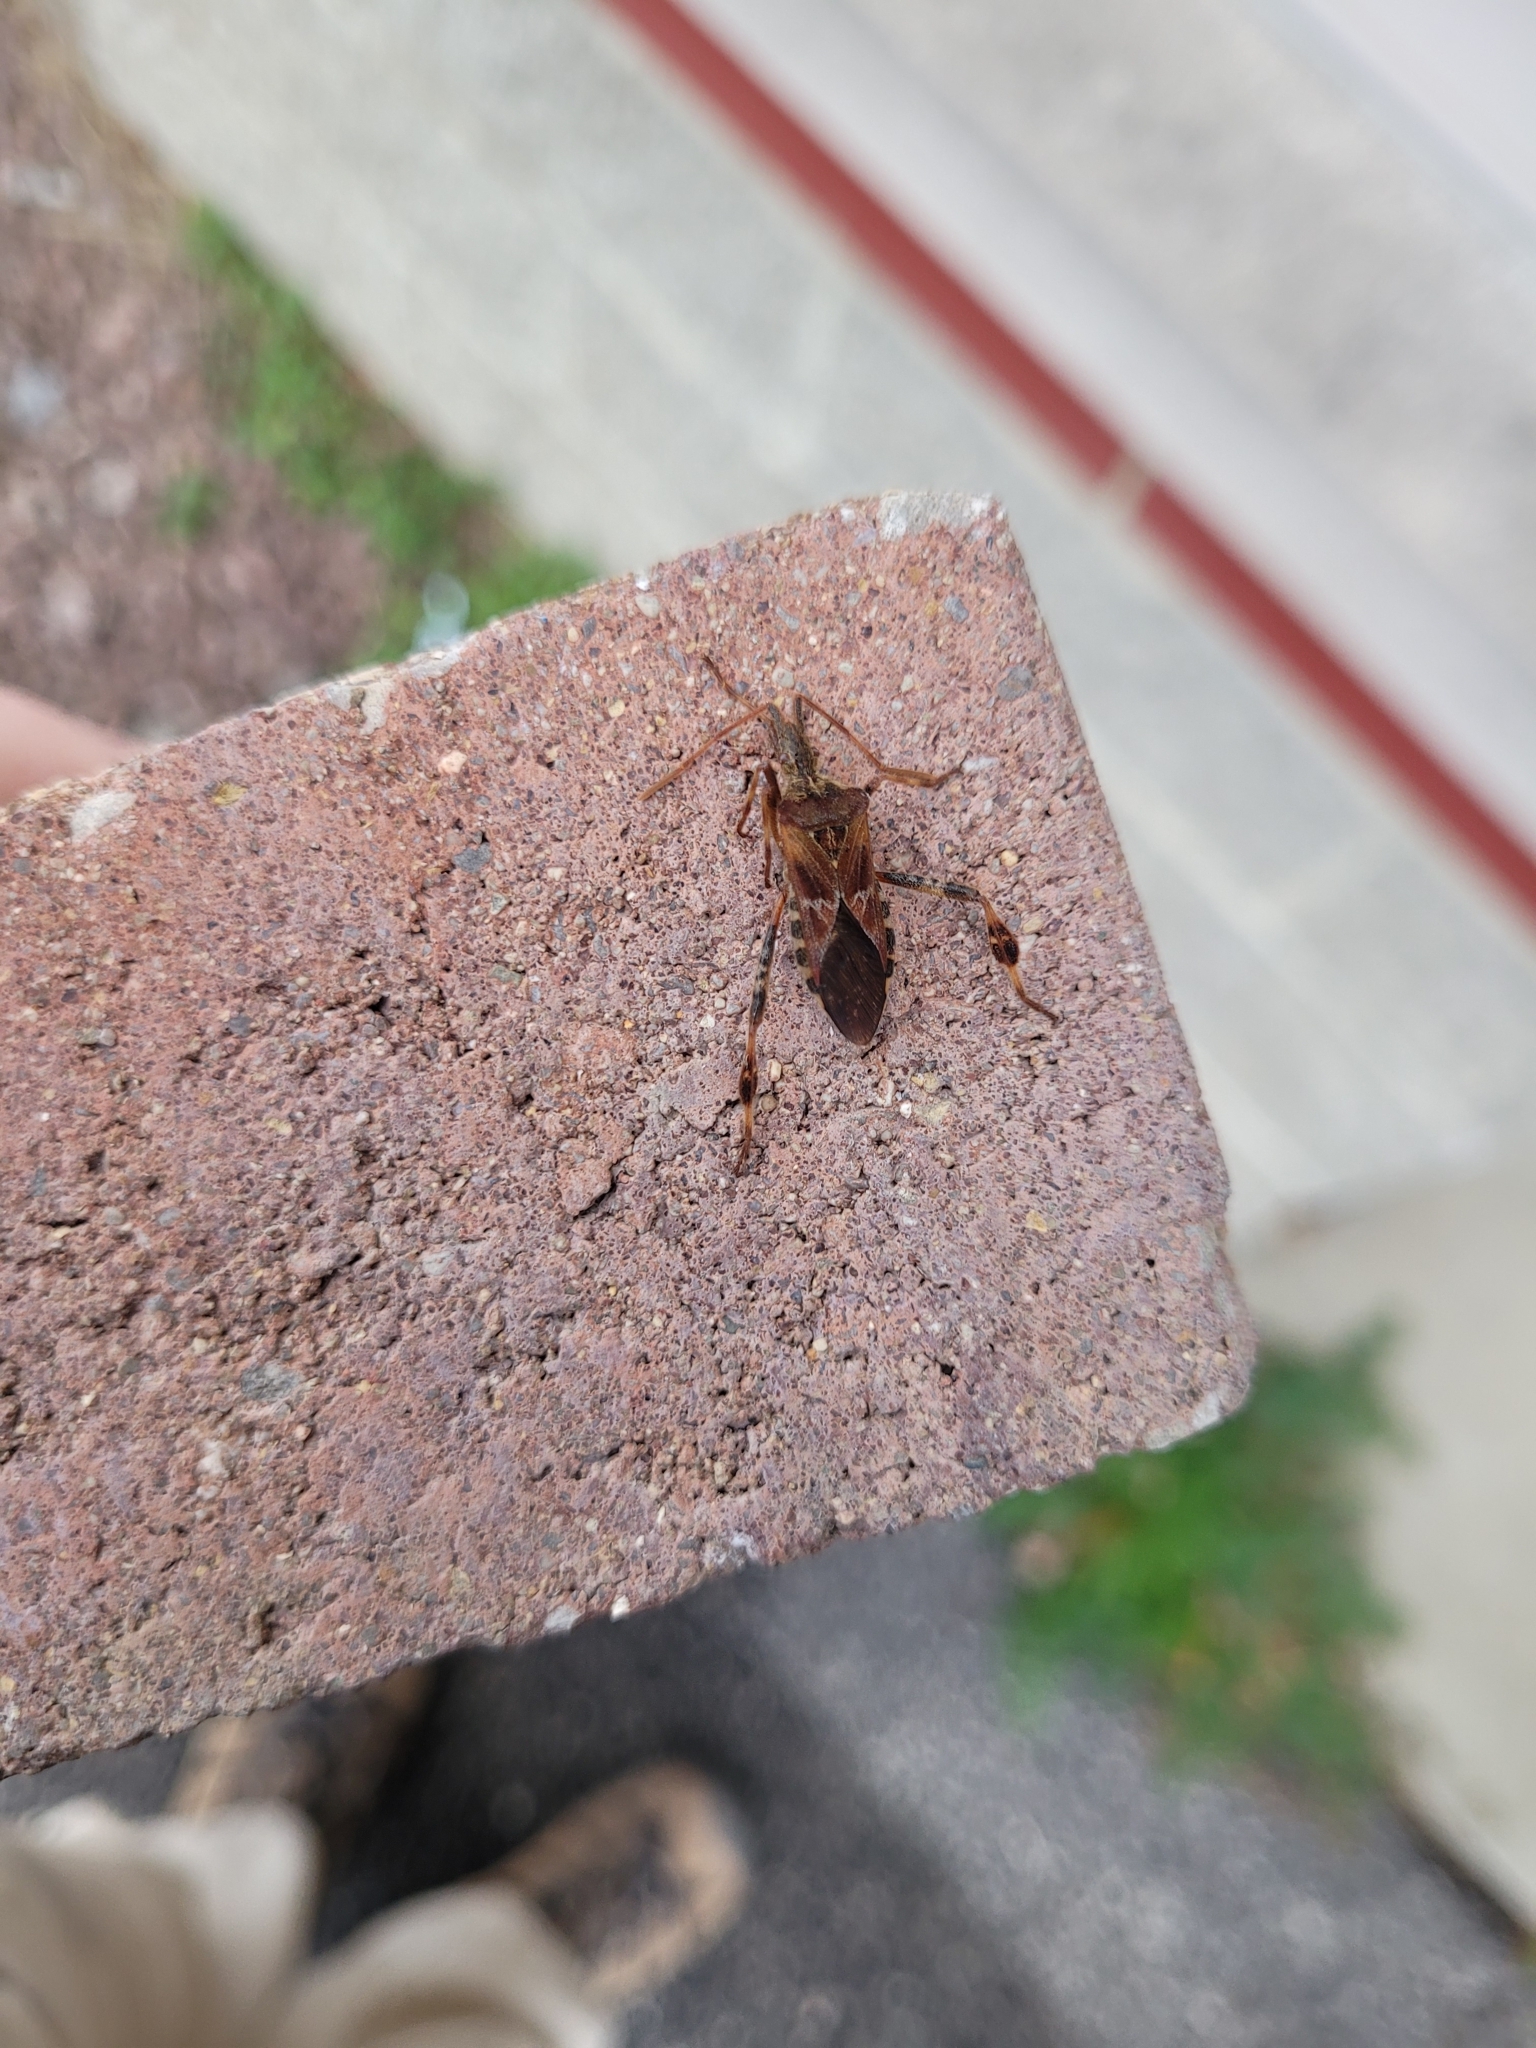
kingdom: Animalia
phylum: Arthropoda
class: Insecta
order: Hemiptera
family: Coreidae
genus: Leptoglossus
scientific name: Leptoglossus occidentalis
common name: Western conifer-seed bug
